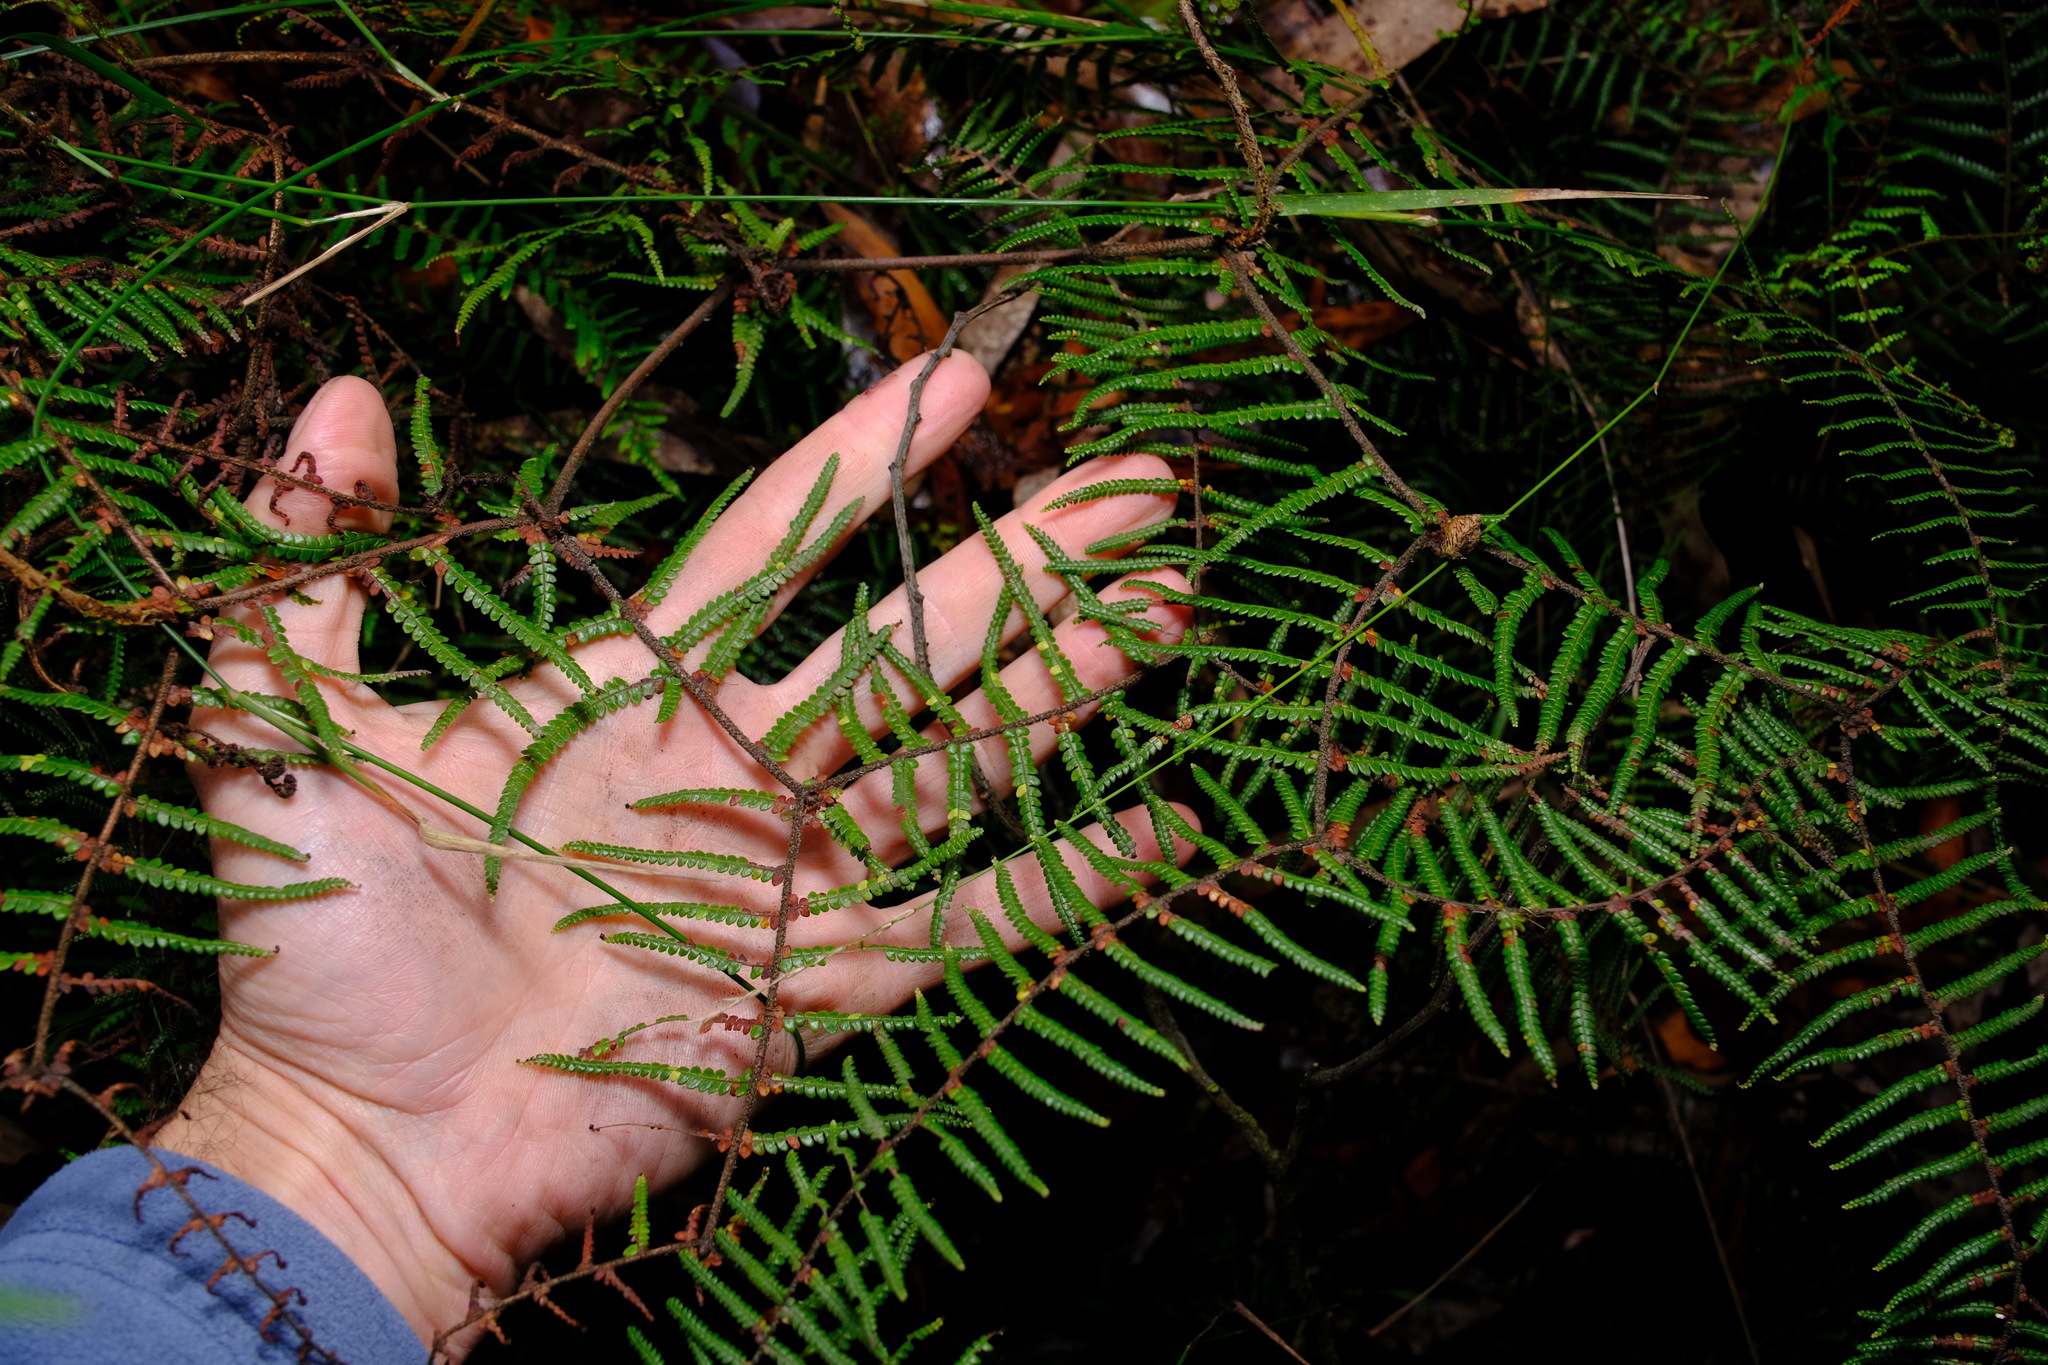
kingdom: Plantae
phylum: Tracheophyta
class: Polypodiopsida
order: Gleicheniales
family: Gleicheniaceae
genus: Gleichenia
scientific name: Gleichenia microphylla
